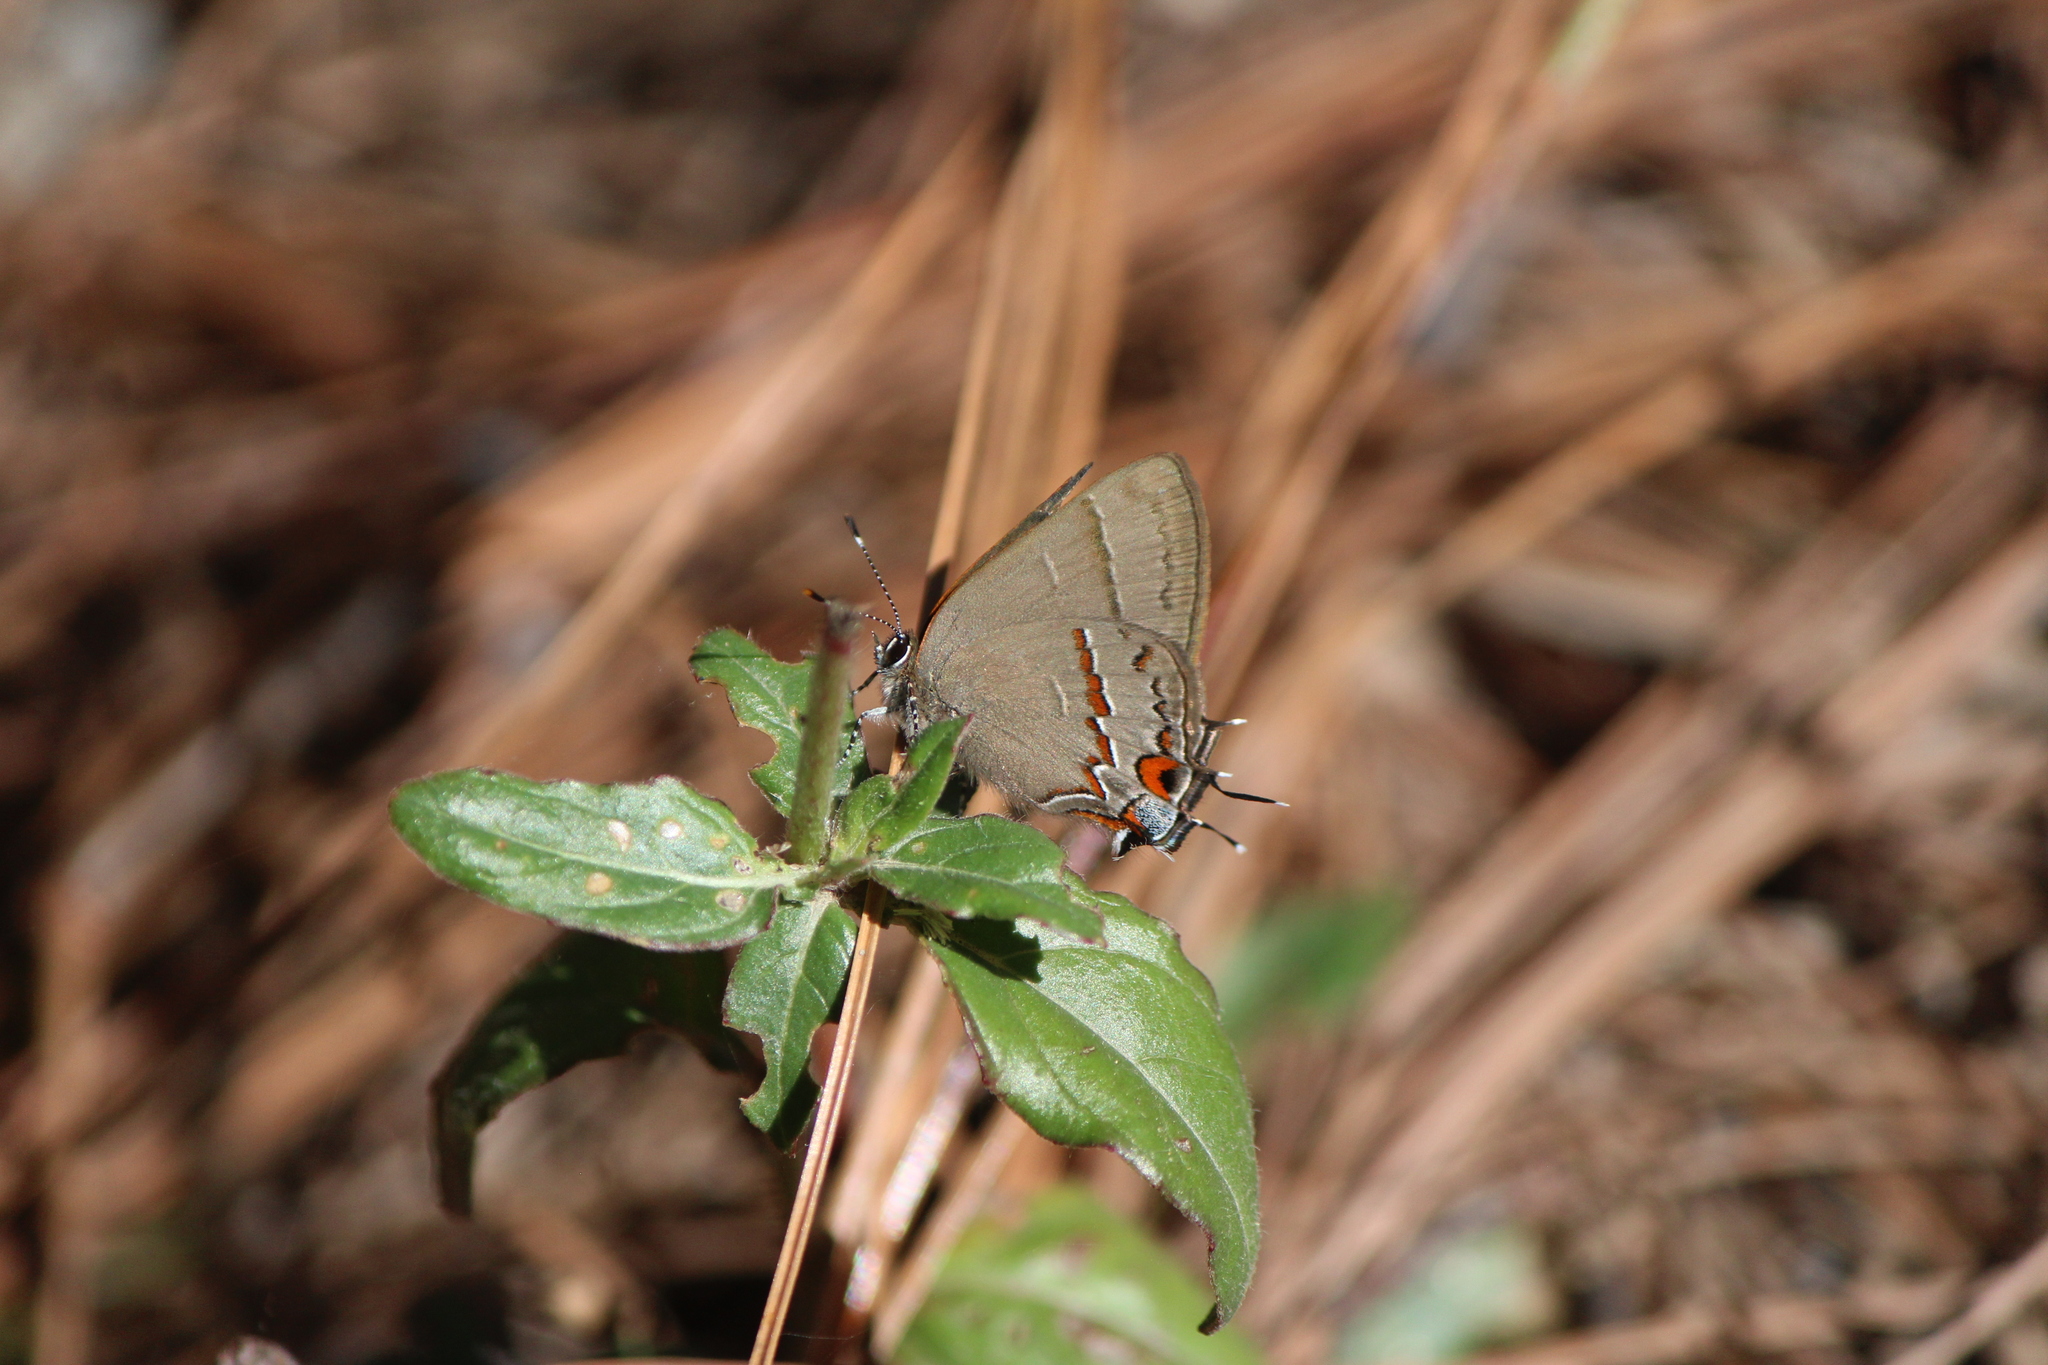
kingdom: Animalia
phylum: Arthropoda
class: Insecta
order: Lepidoptera
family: Lycaenidae
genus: Electrostrymon
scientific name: Electrostrymon
